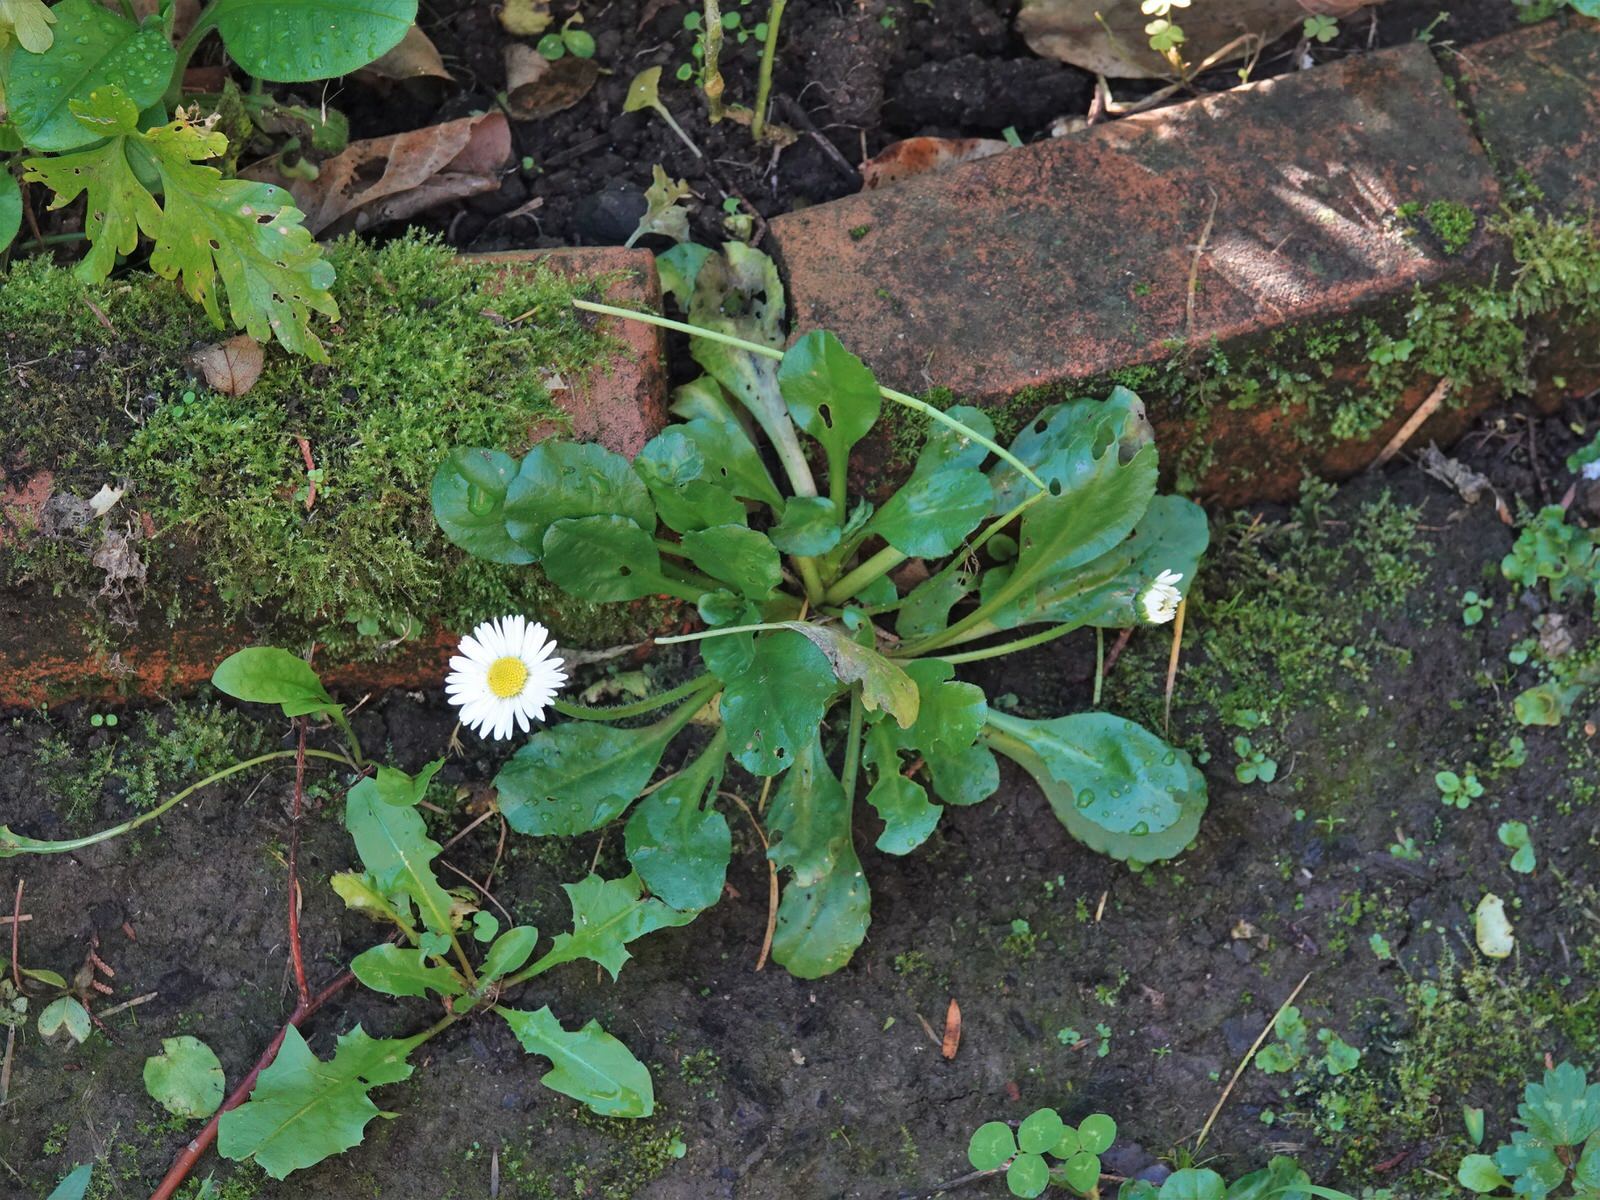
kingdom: Plantae
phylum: Tracheophyta
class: Magnoliopsida
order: Asterales
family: Asteraceae
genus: Bellis
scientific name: Bellis perennis
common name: Lawndaisy
